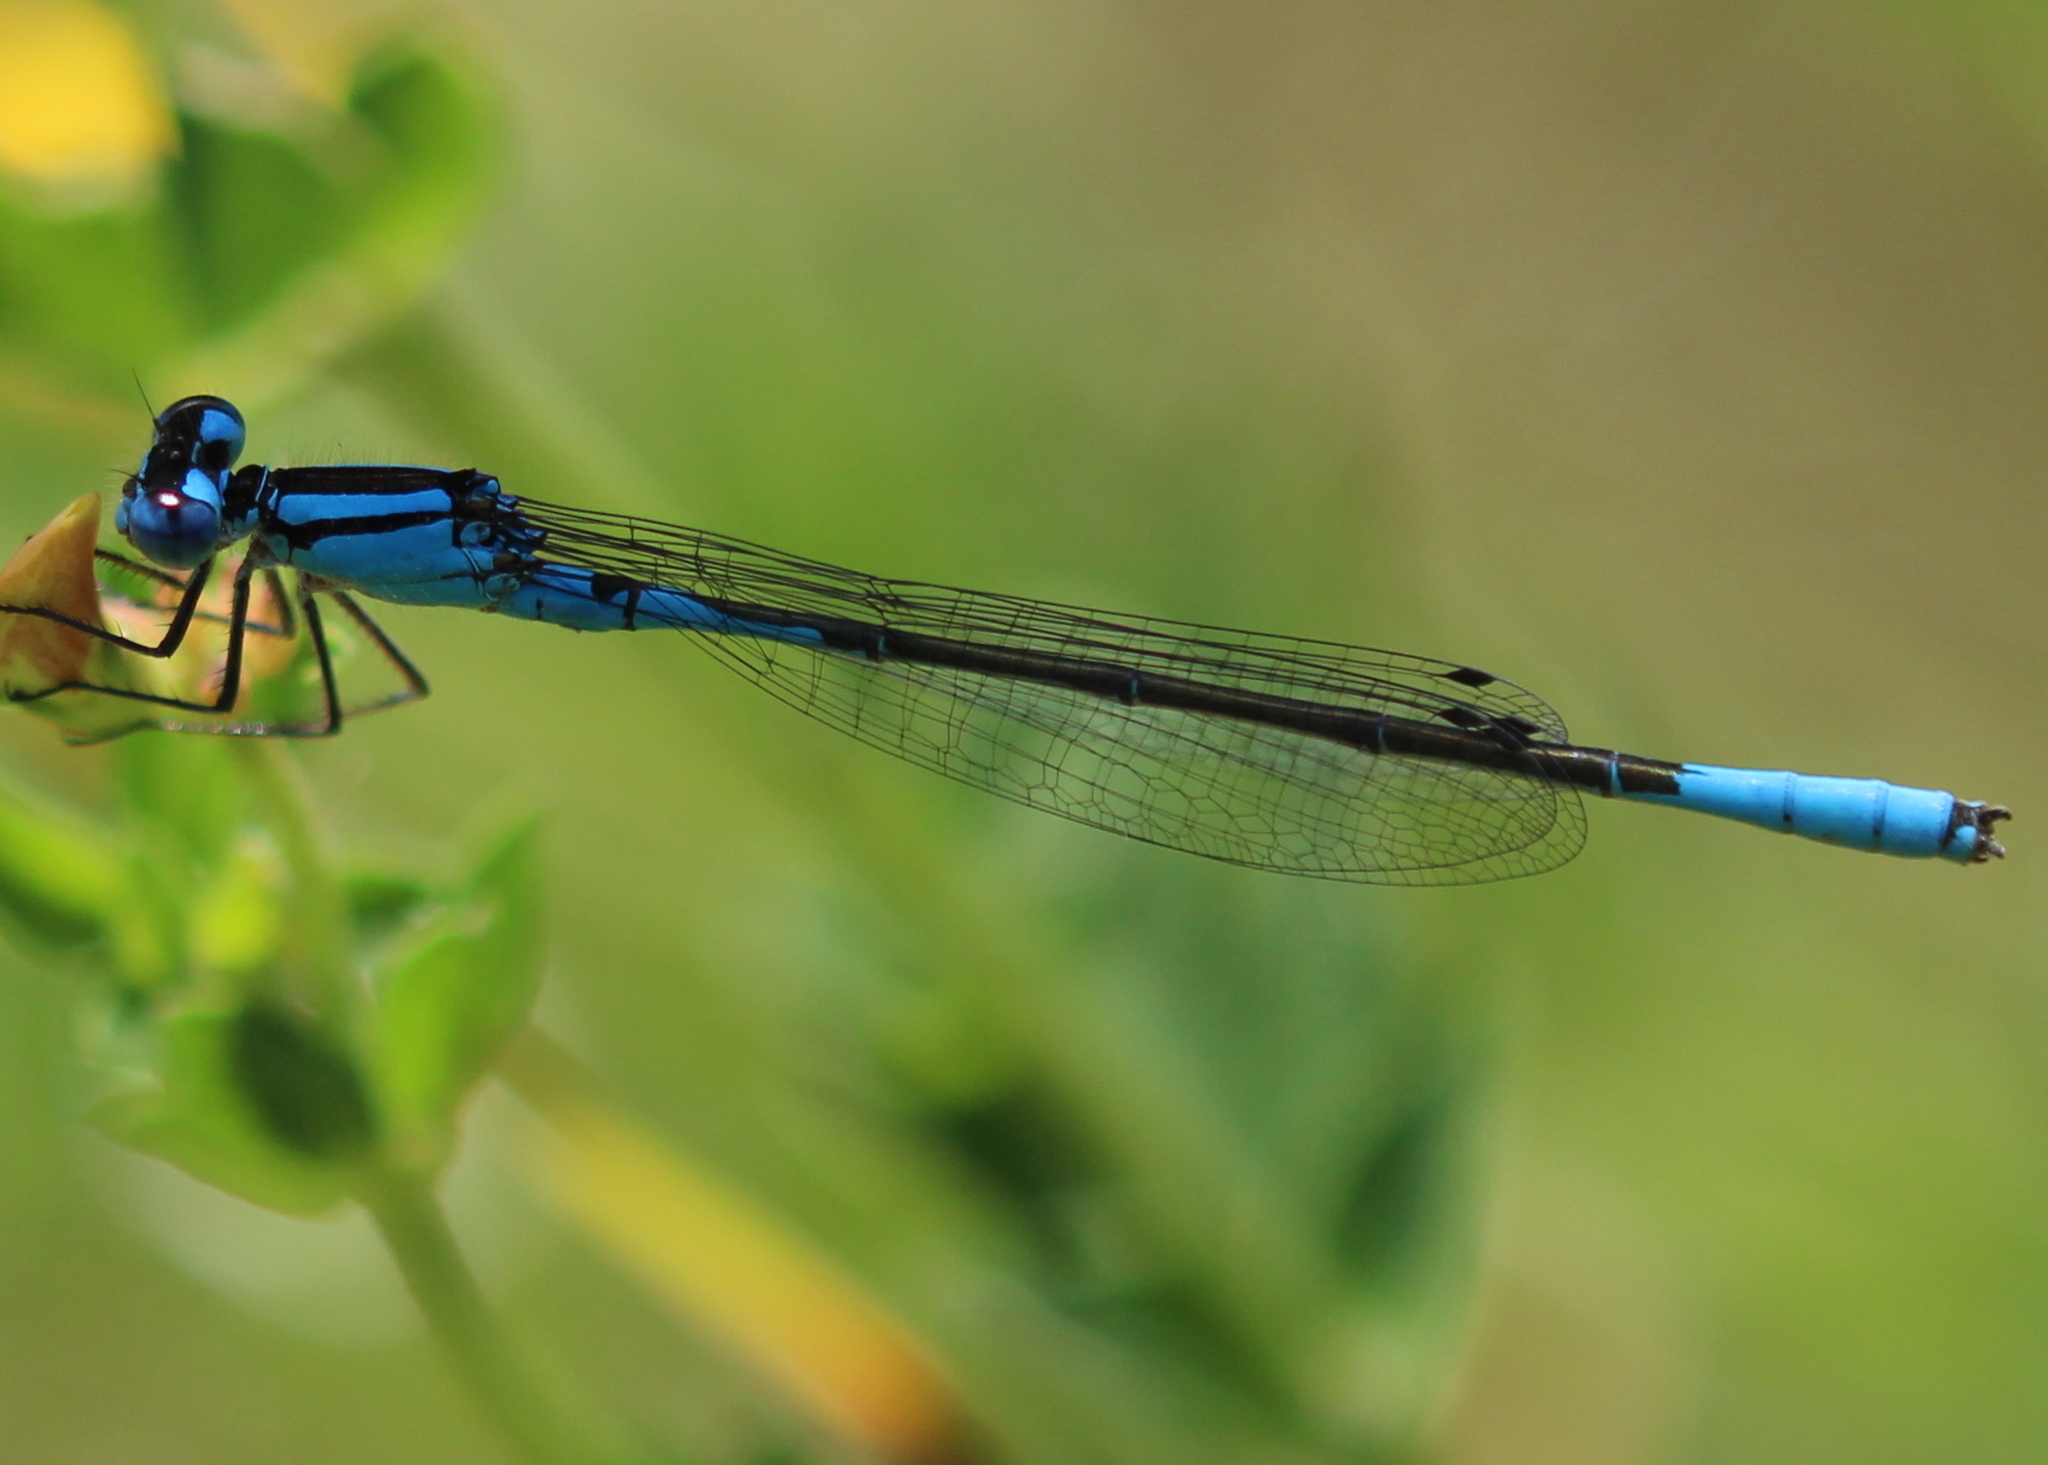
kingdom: Animalia
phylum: Arthropoda
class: Insecta
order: Odonata
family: Coenagrionidae
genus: Enallagma
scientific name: Enallagma aspersum
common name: Azure bluet
